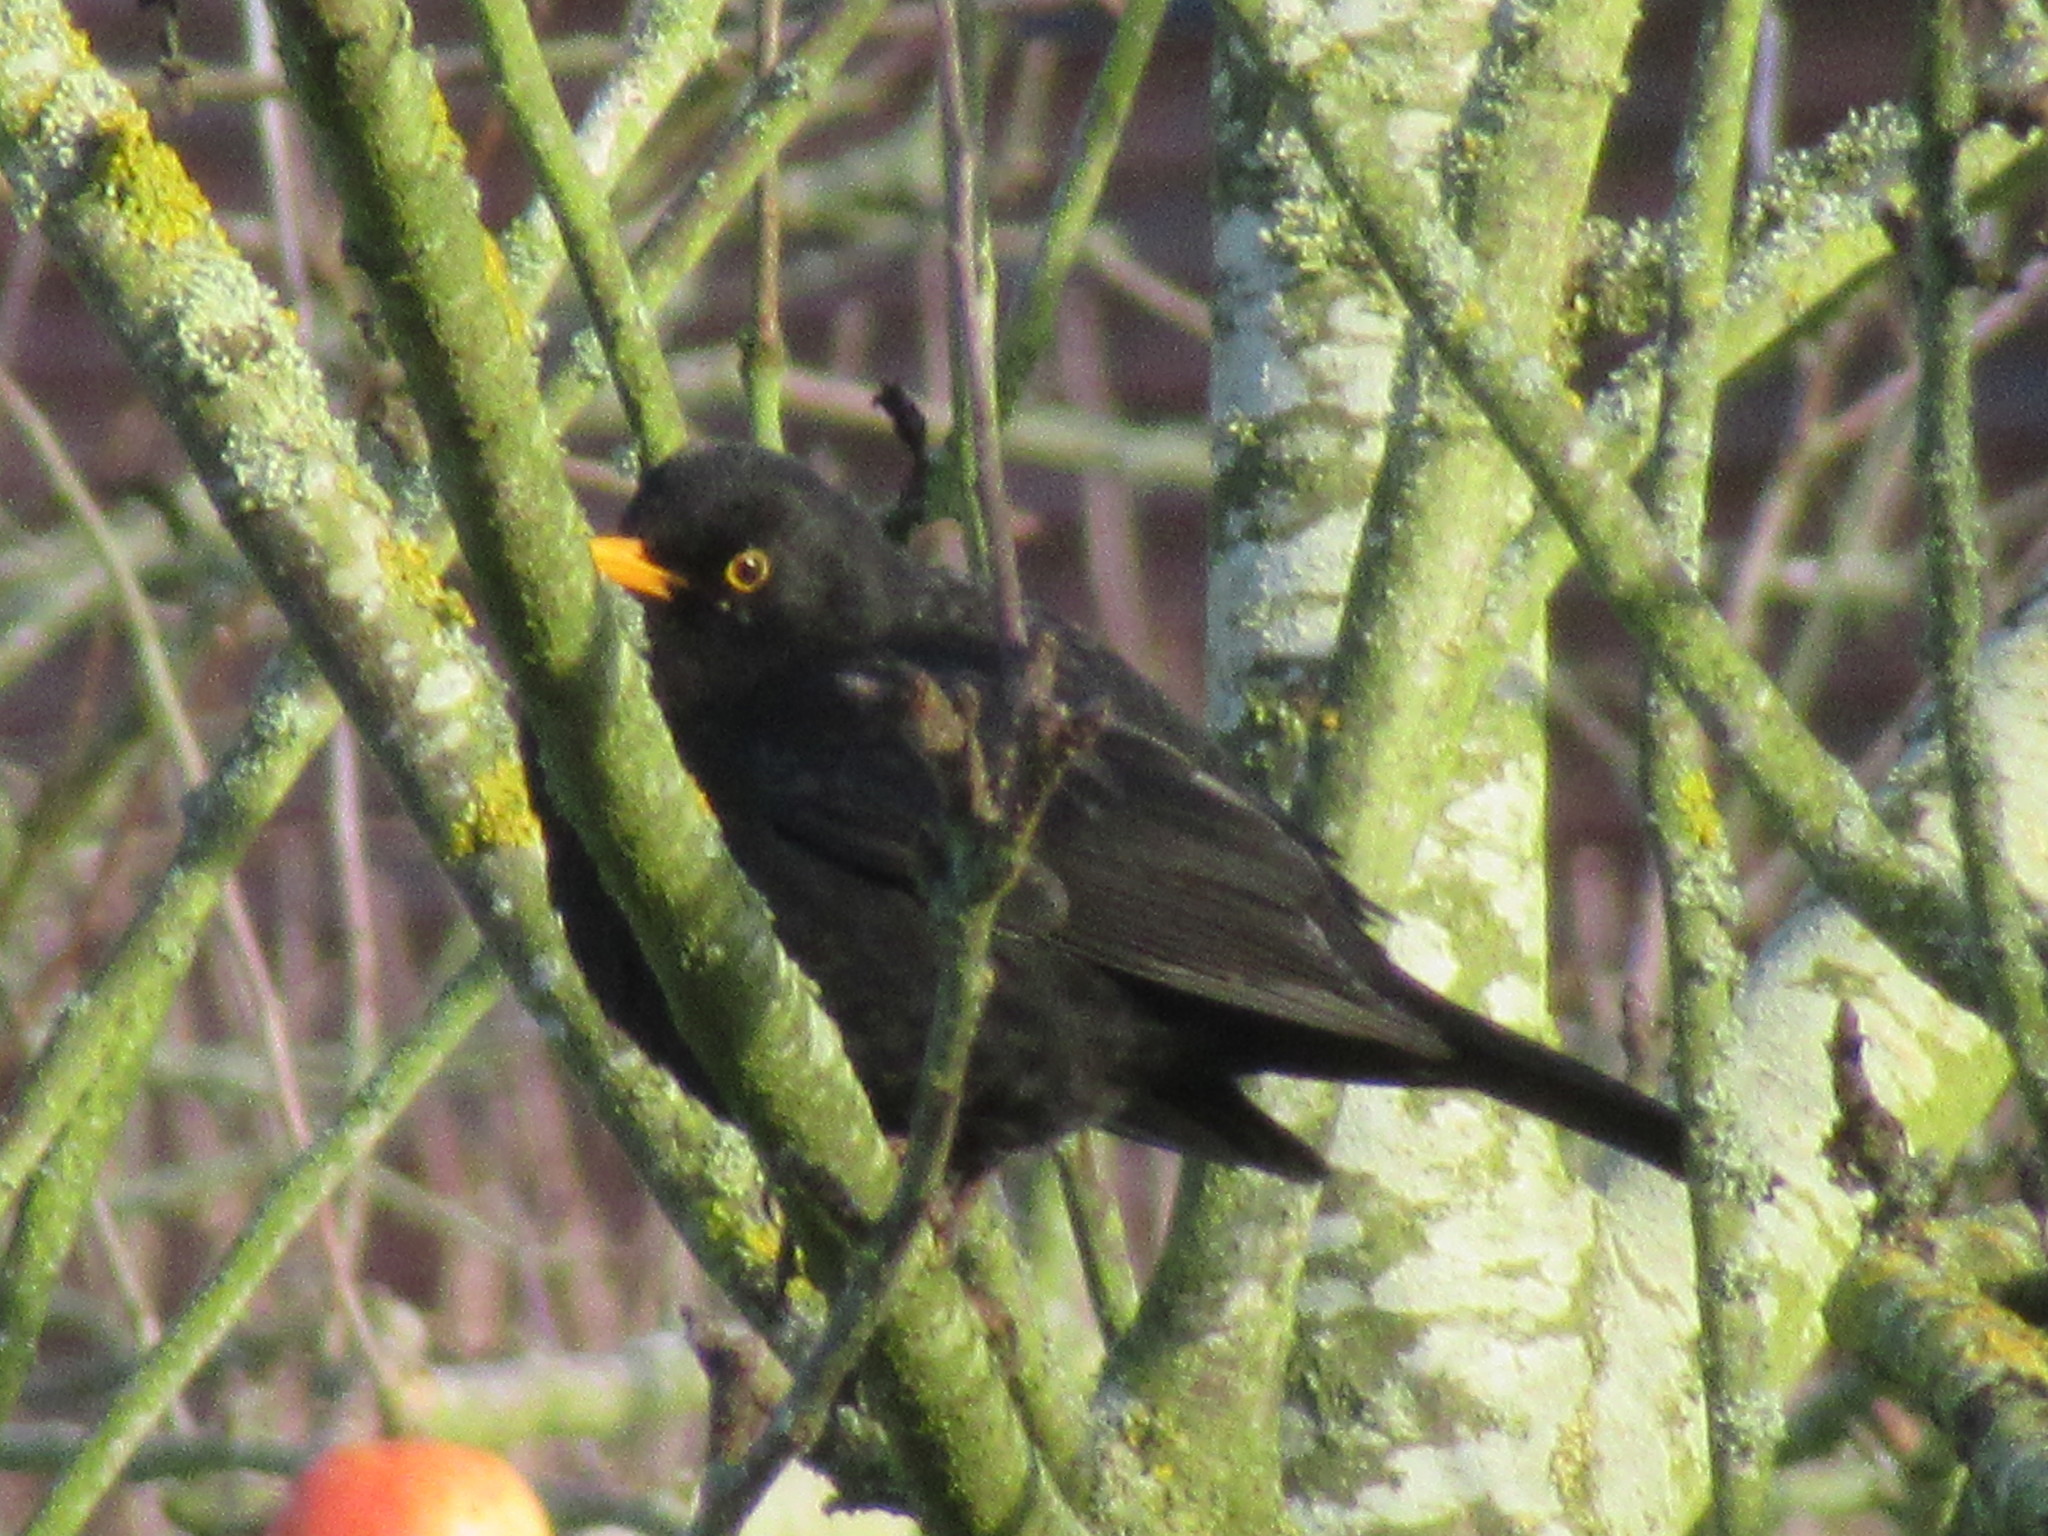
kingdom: Animalia
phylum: Chordata
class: Aves
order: Passeriformes
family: Turdidae
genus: Turdus
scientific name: Turdus merula
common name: Common blackbird
